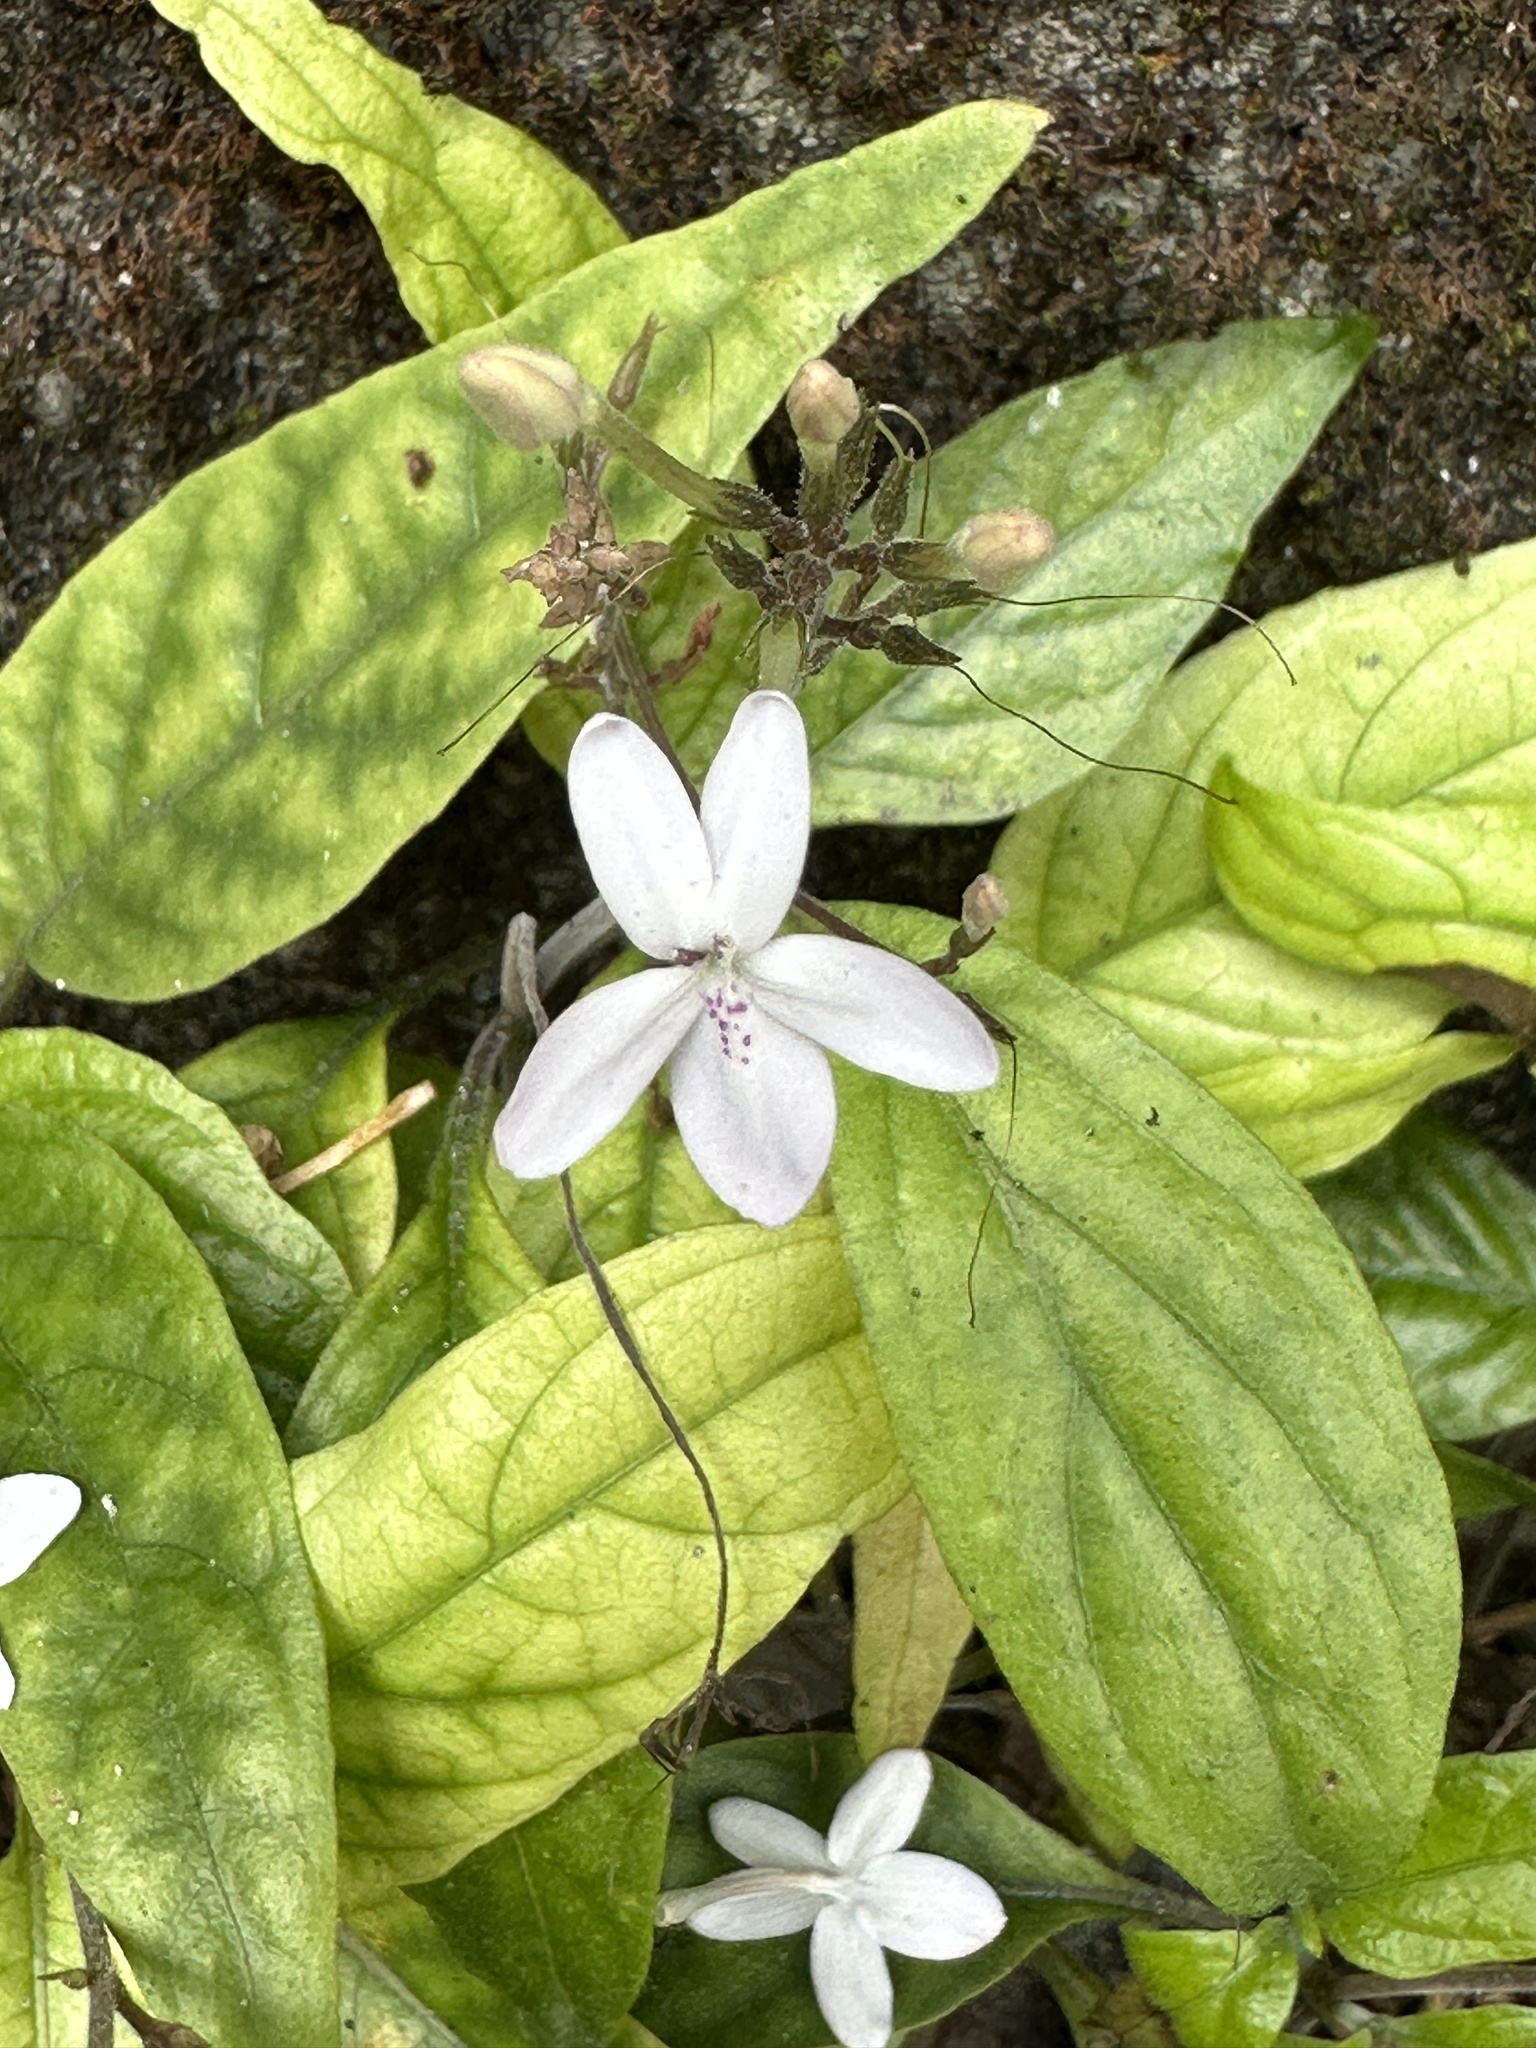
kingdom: Plantae
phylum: Tracheophyta
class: Magnoliopsida
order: Lamiales
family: Acanthaceae
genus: Pseuderanthemum
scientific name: Pseuderanthemum variabile
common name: Night and afternoon
